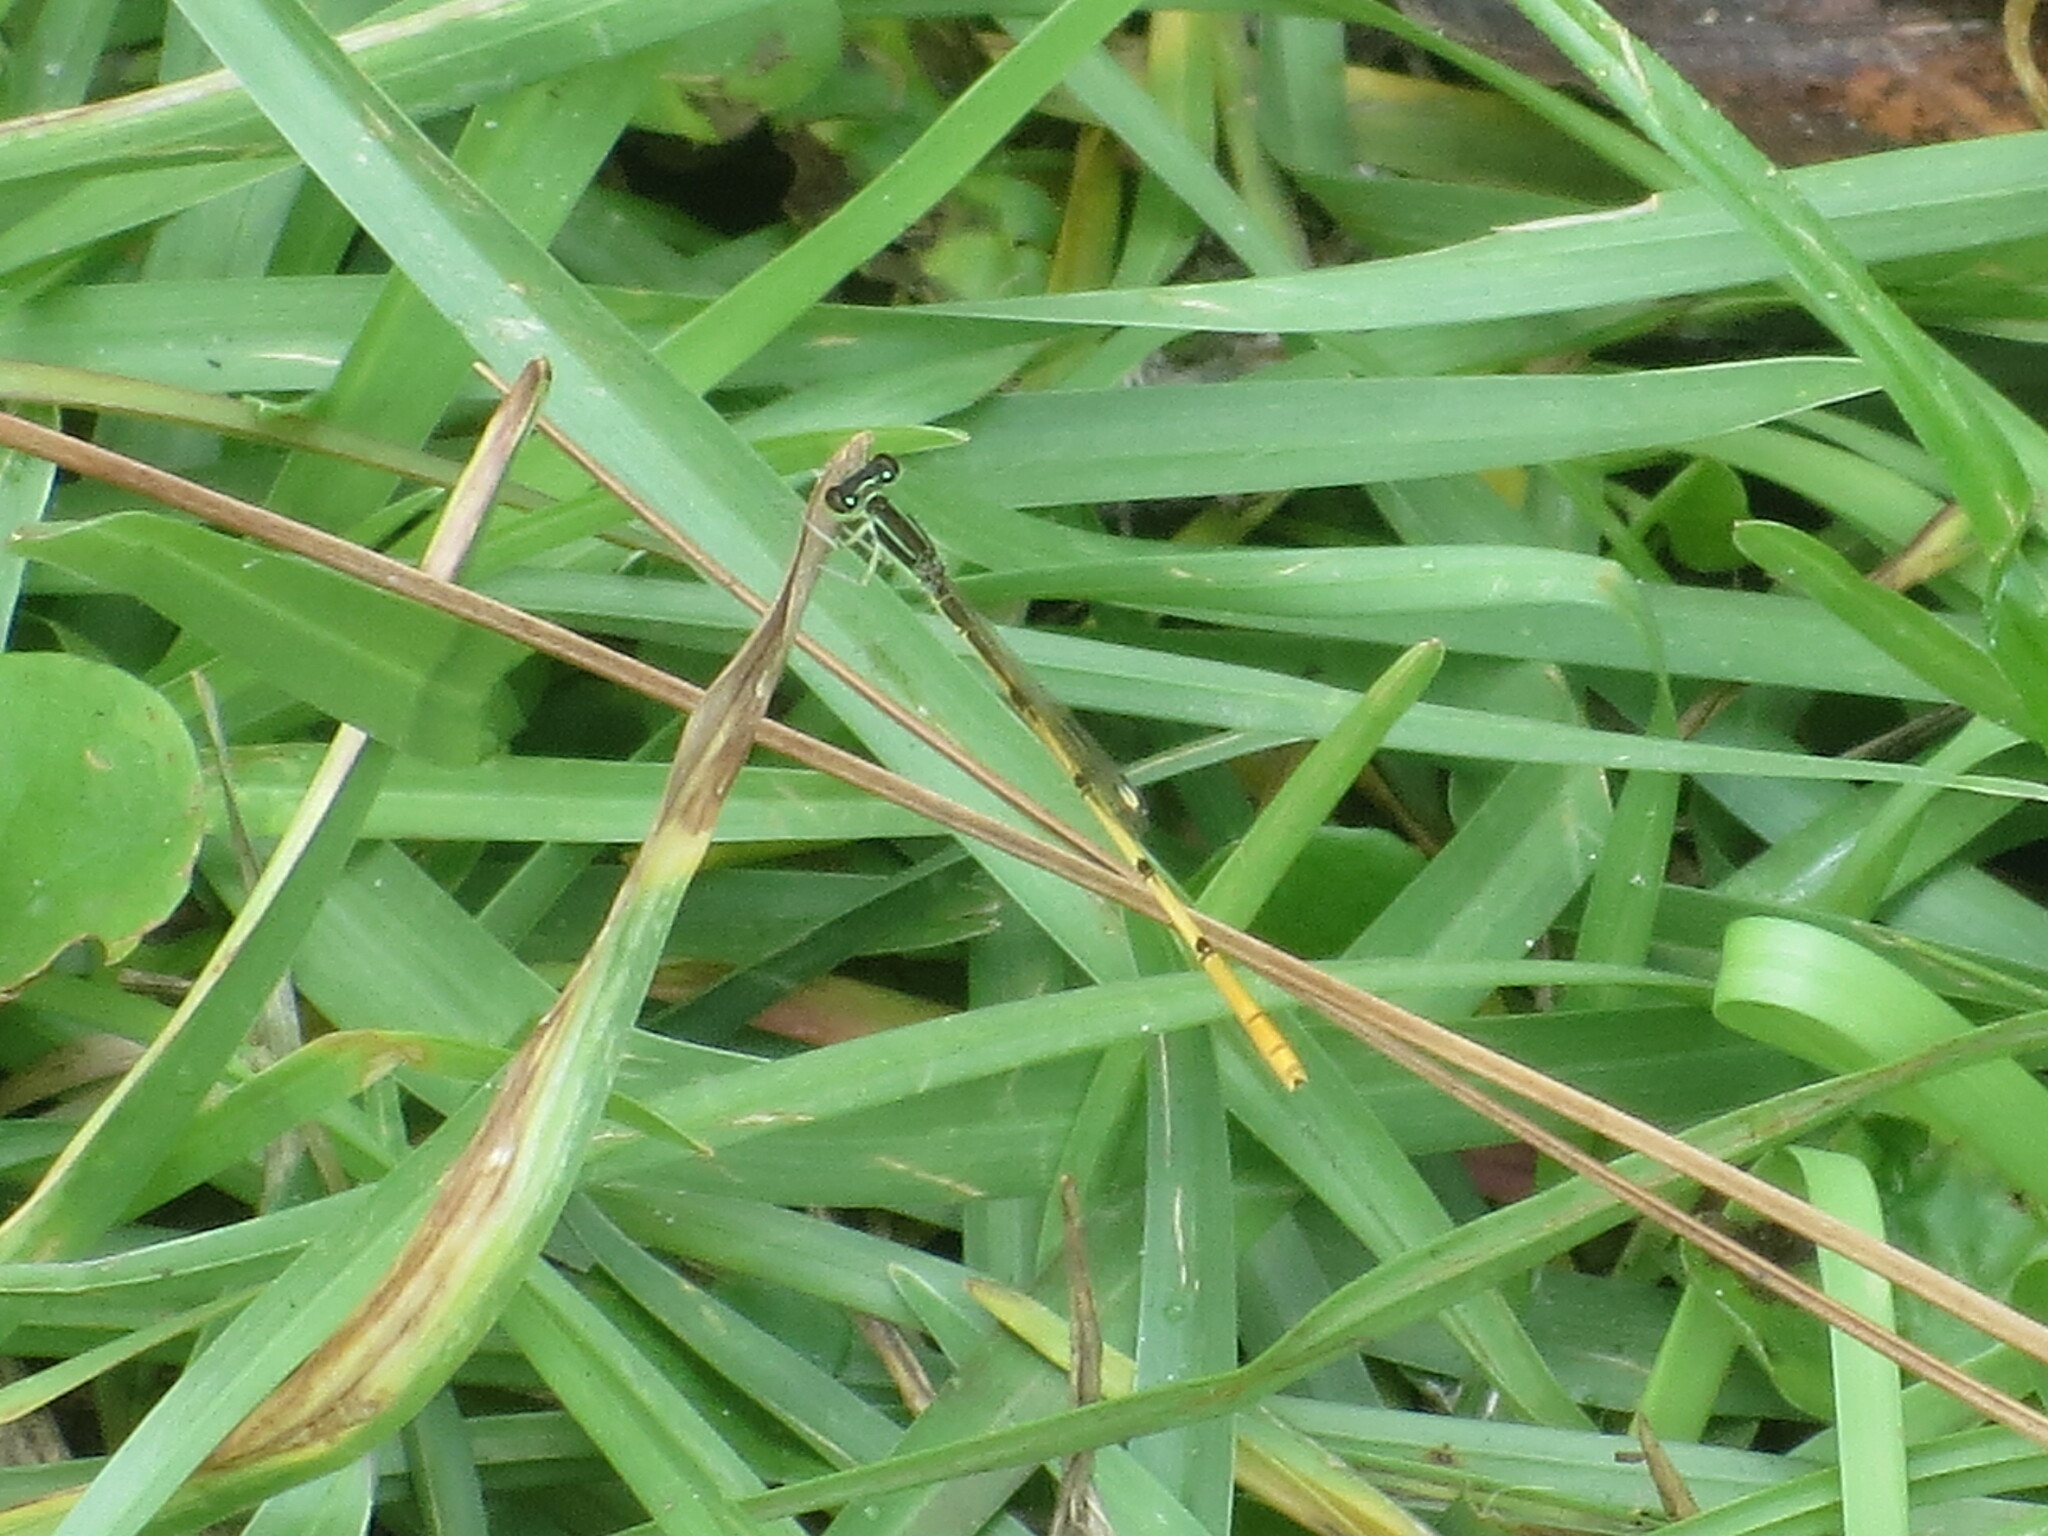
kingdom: Animalia
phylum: Arthropoda
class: Insecta
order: Odonata
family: Coenagrionidae
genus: Ischnura
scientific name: Ischnura hastata
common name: Citrine forktail
